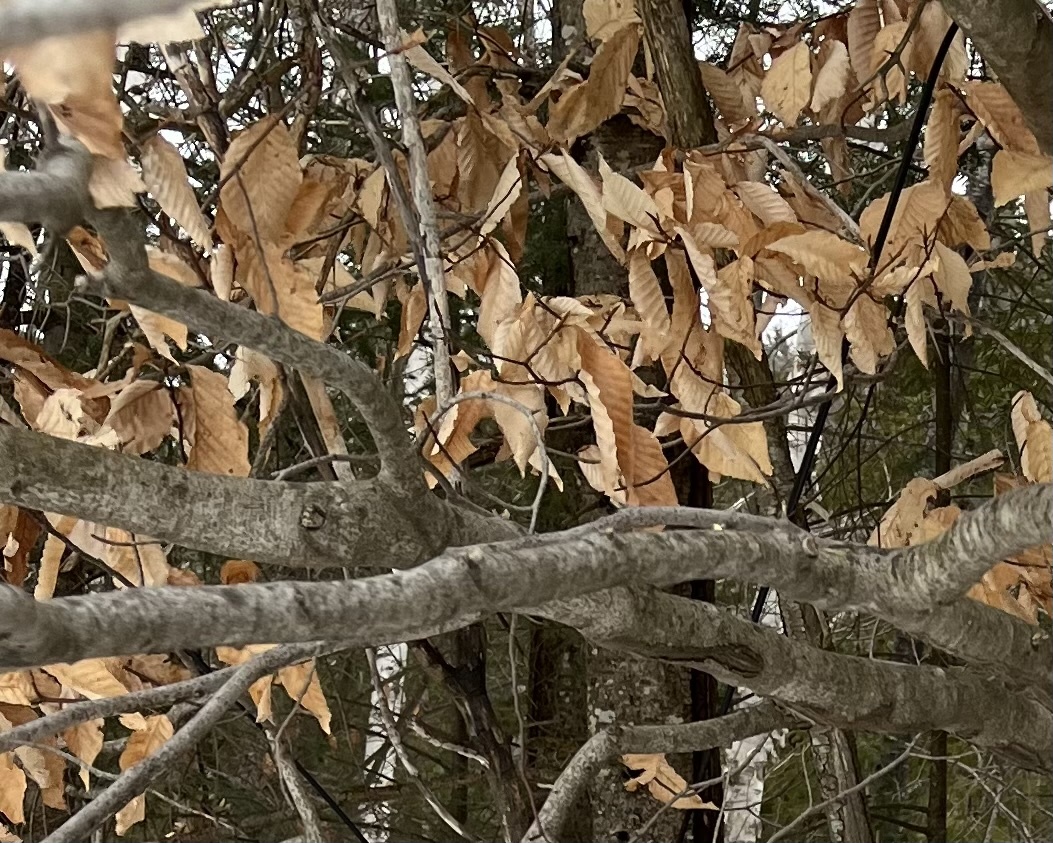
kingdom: Plantae
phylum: Tracheophyta
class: Magnoliopsida
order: Fagales
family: Fagaceae
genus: Fagus
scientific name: Fagus grandifolia
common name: American beech
